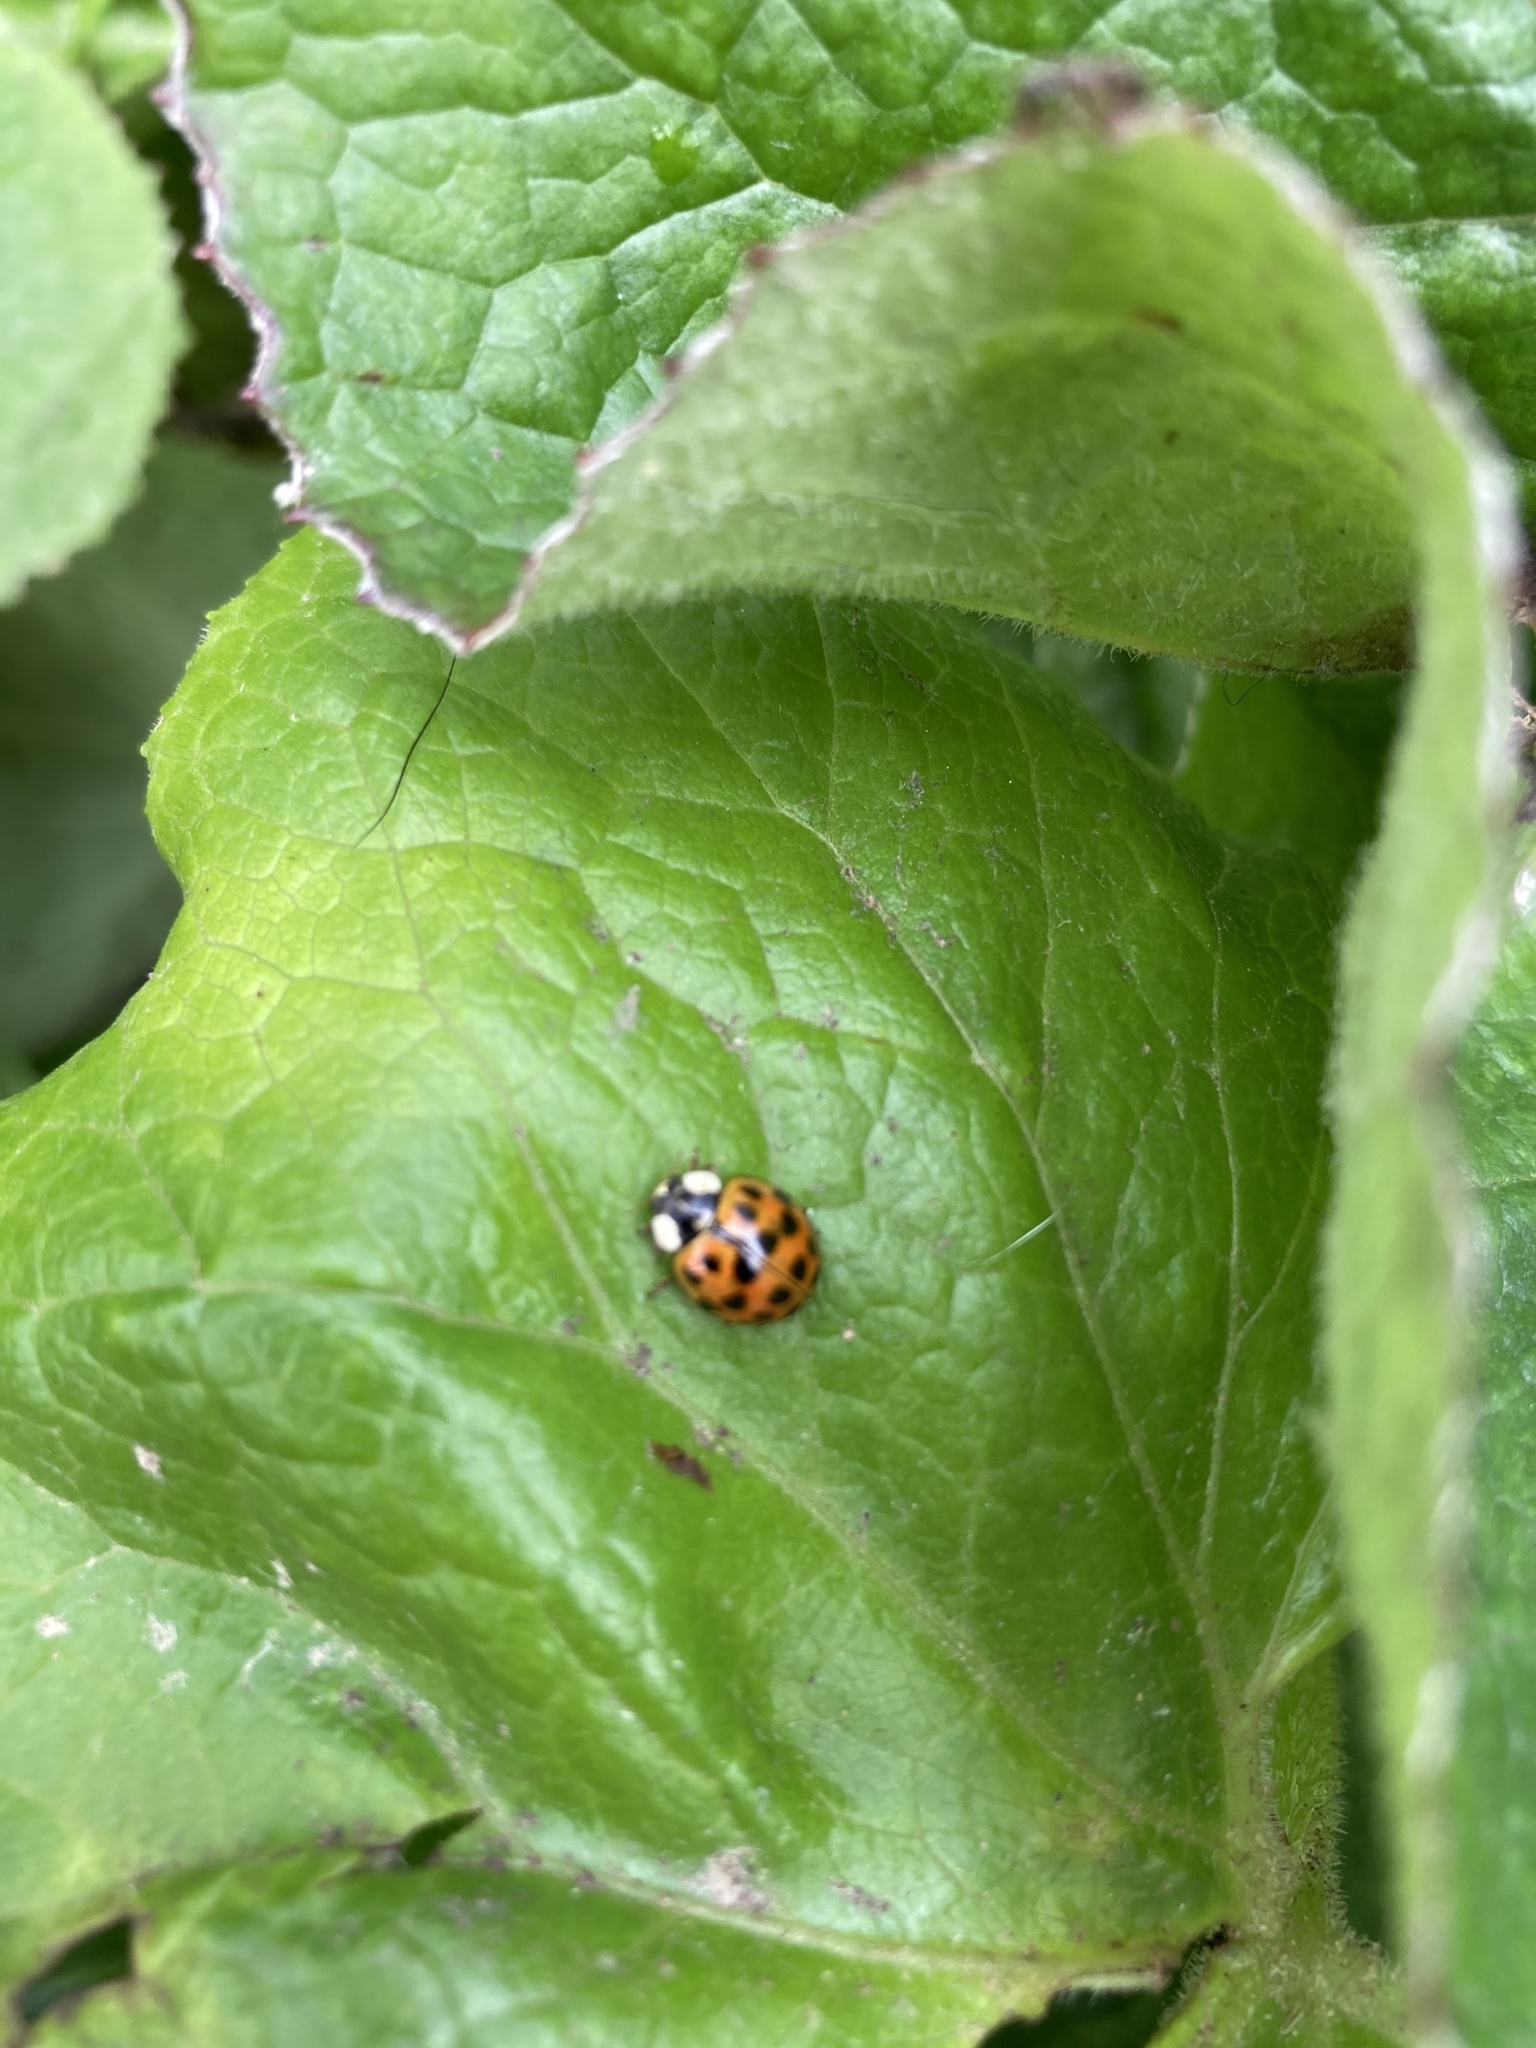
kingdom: Animalia
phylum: Arthropoda
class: Insecta
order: Coleoptera
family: Coccinellidae
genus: Harmonia
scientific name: Harmonia axyridis
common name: Harlequin ladybird
